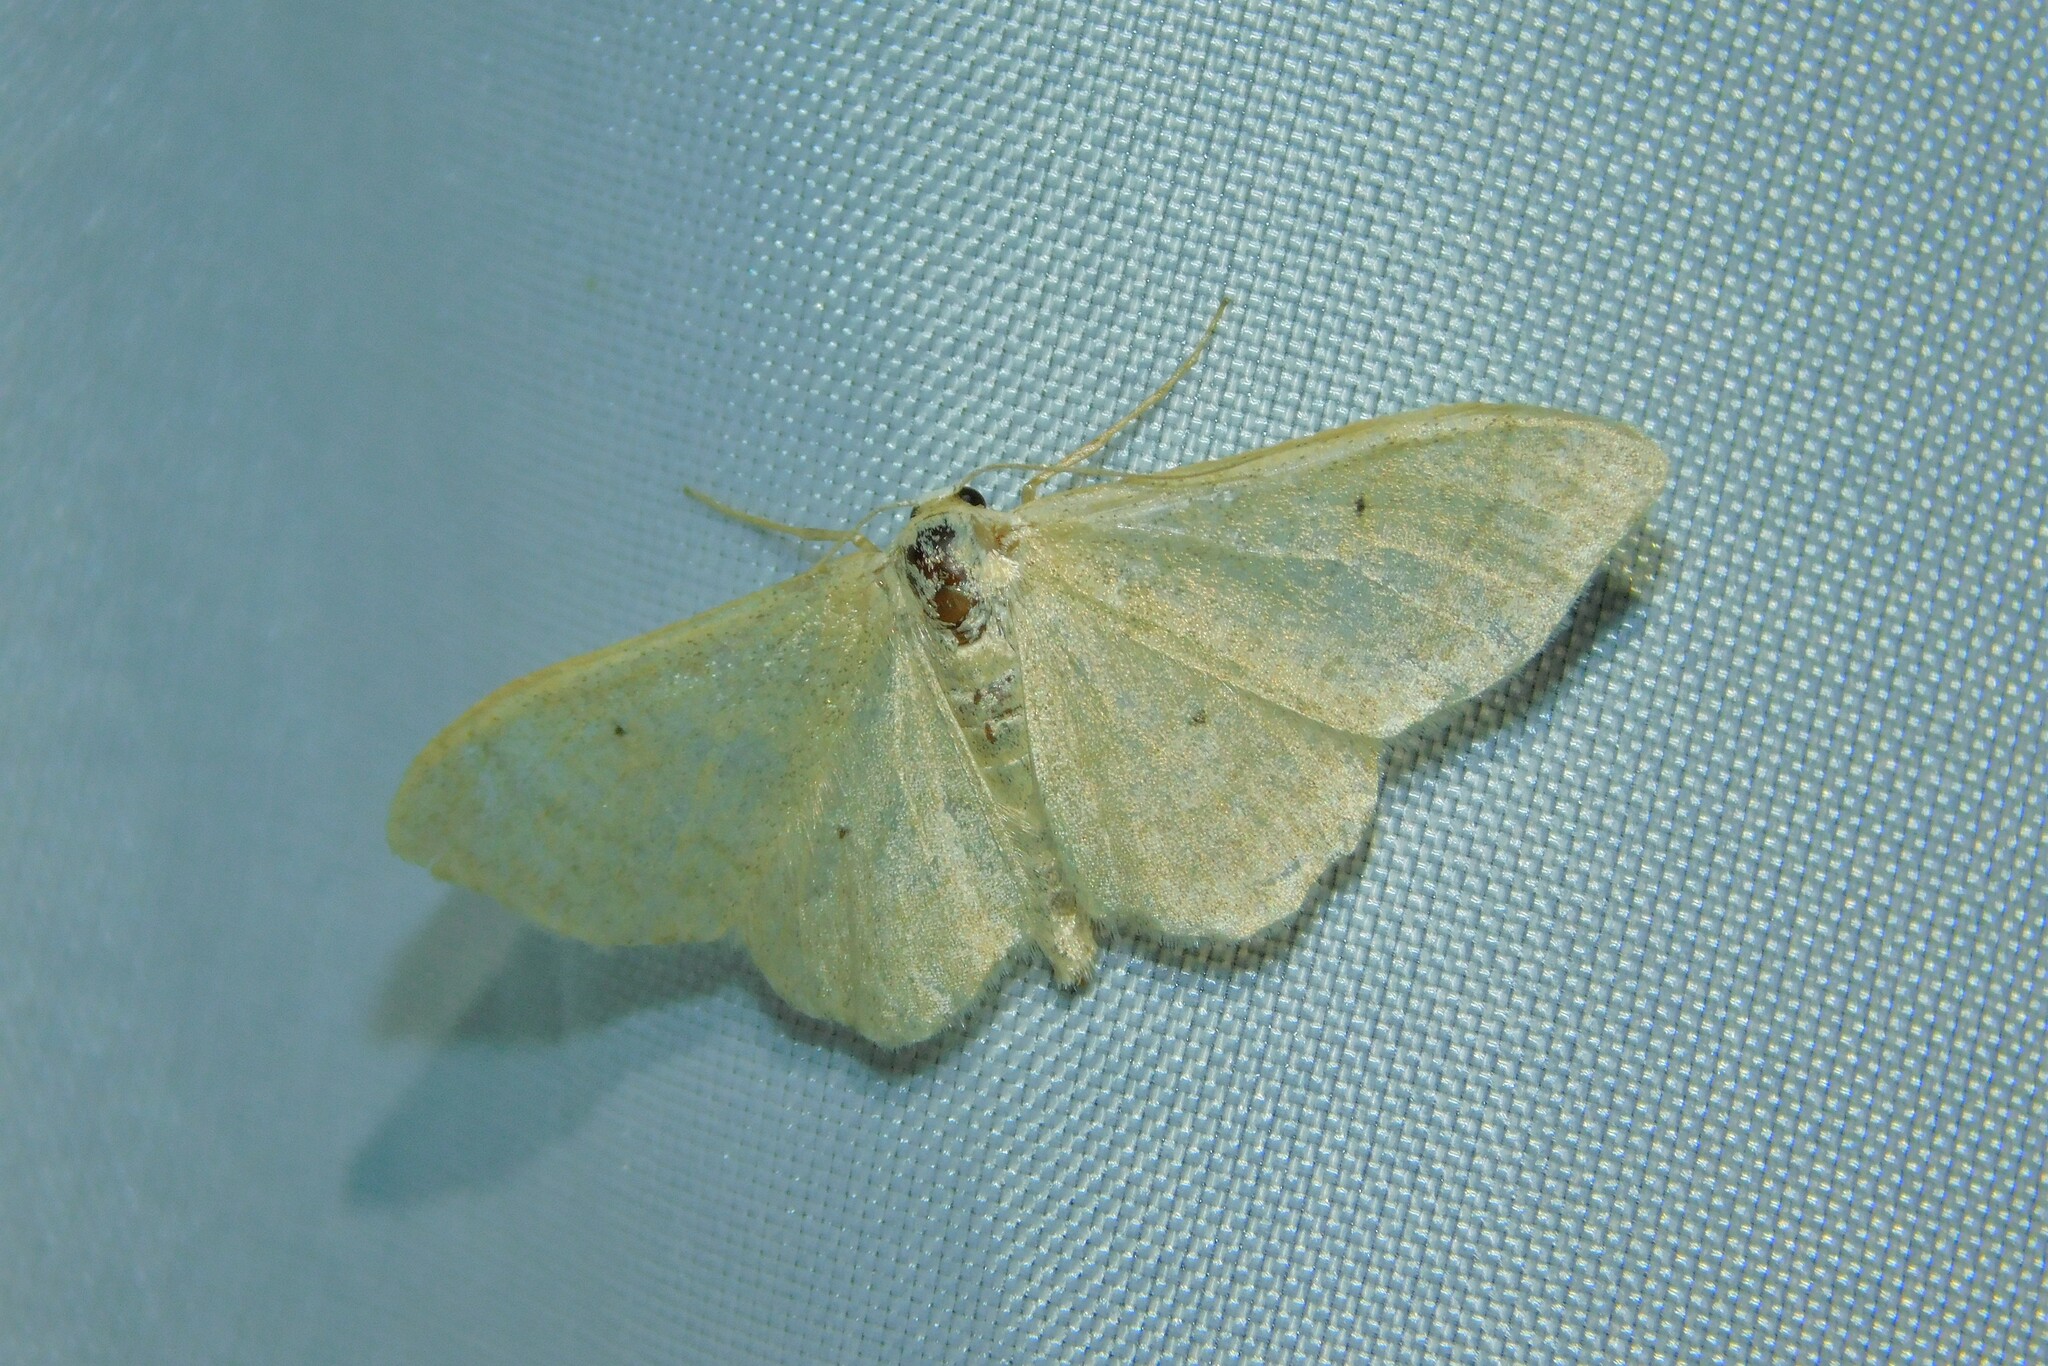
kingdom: Animalia
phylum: Arthropoda
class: Insecta
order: Lepidoptera
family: Geometridae
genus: Idaea
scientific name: Idaea straminata
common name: Plain wave
